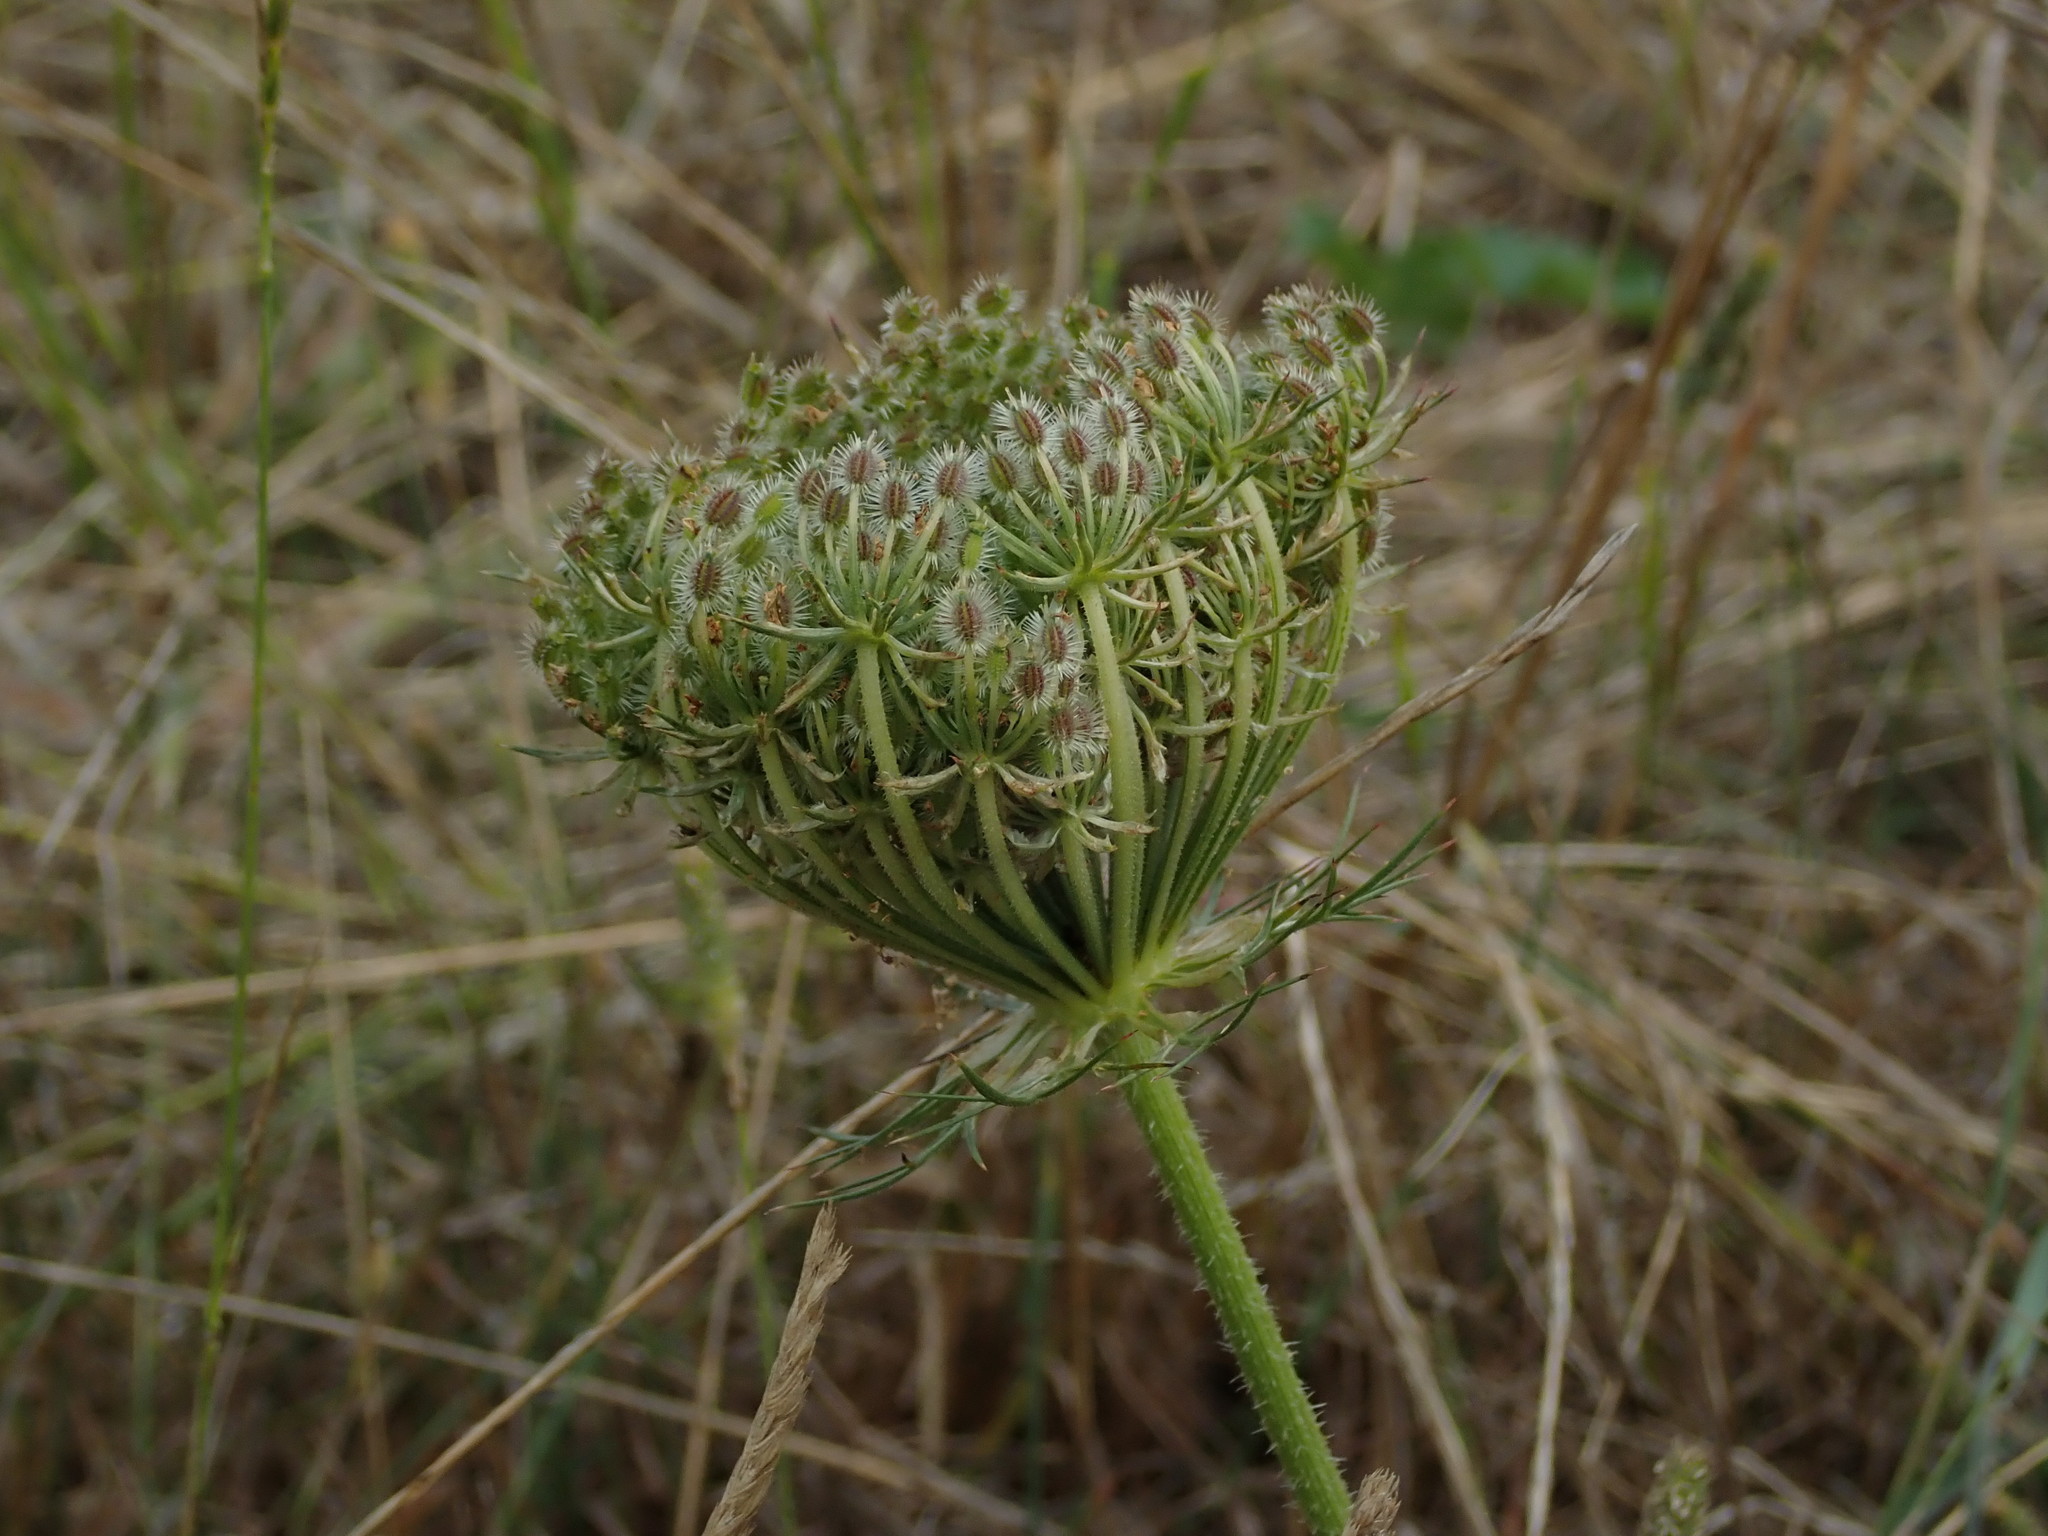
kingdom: Plantae
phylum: Tracheophyta
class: Magnoliopsida
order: Apiales
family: Apiaceae
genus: Daucus
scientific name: Daucus carota
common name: Wild carrot
